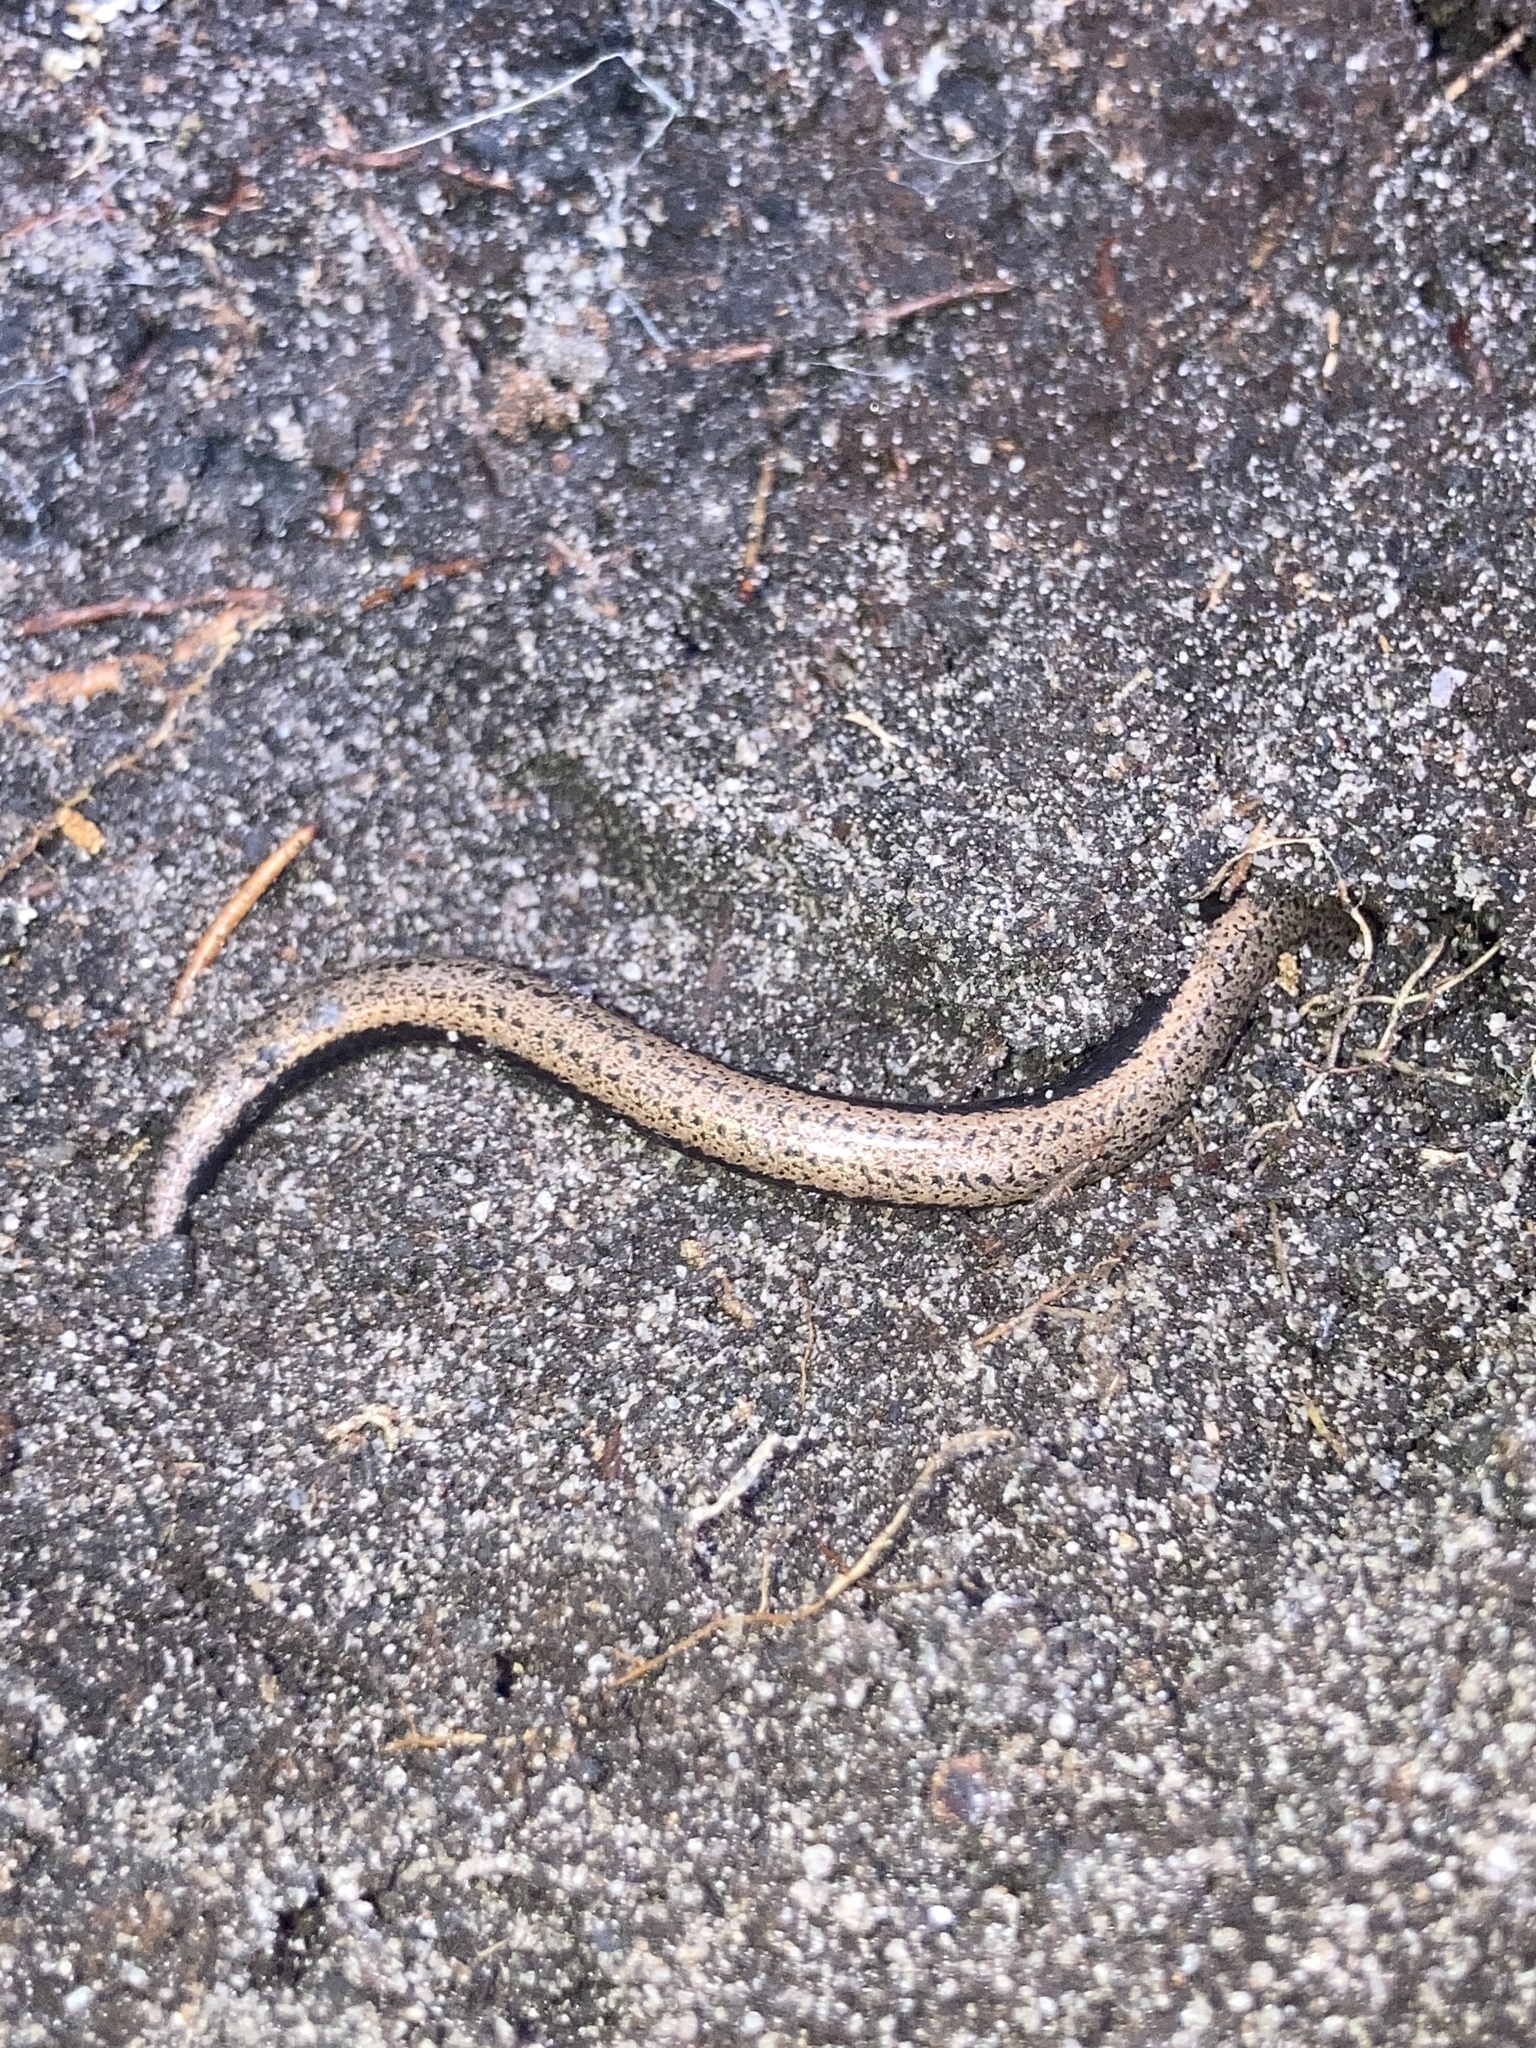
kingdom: Animalia
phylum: Chordata
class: Squamata
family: Scincidae
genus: Saiphos
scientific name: Saiphos equalis
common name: Three-toed skink
